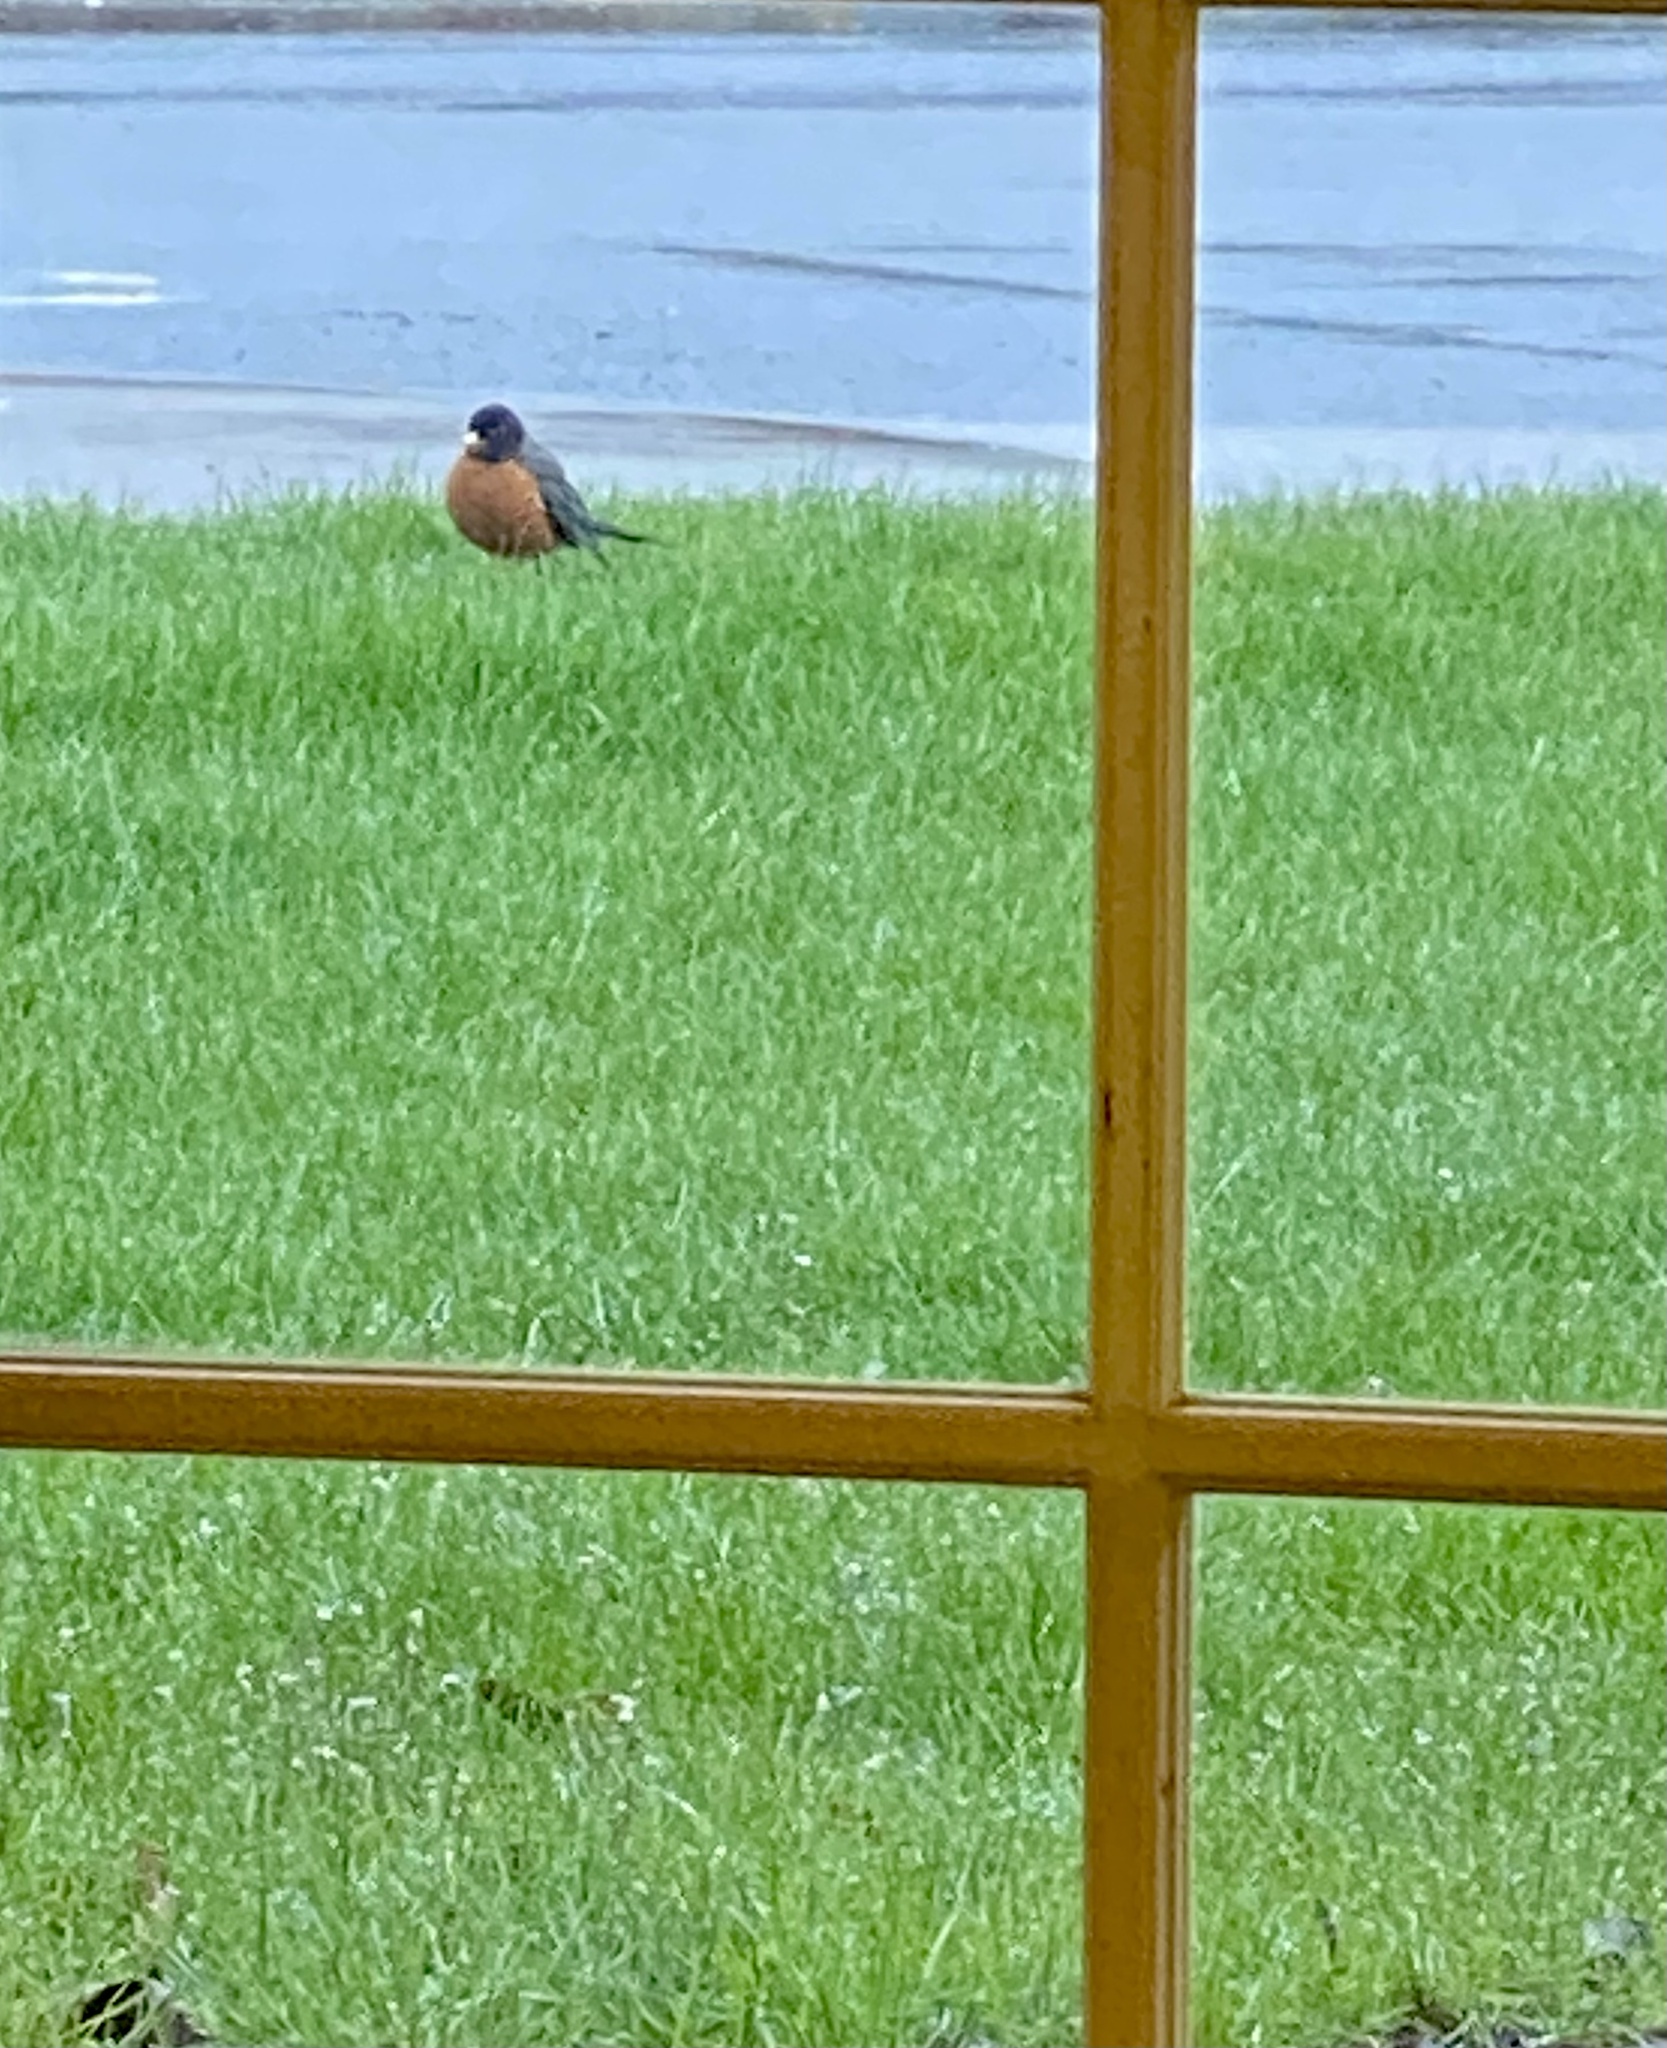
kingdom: Animalia
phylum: Chordata
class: Aves
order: Passeriformes
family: Turdidae
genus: Turdus
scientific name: Turdus migratorius
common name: American robin
